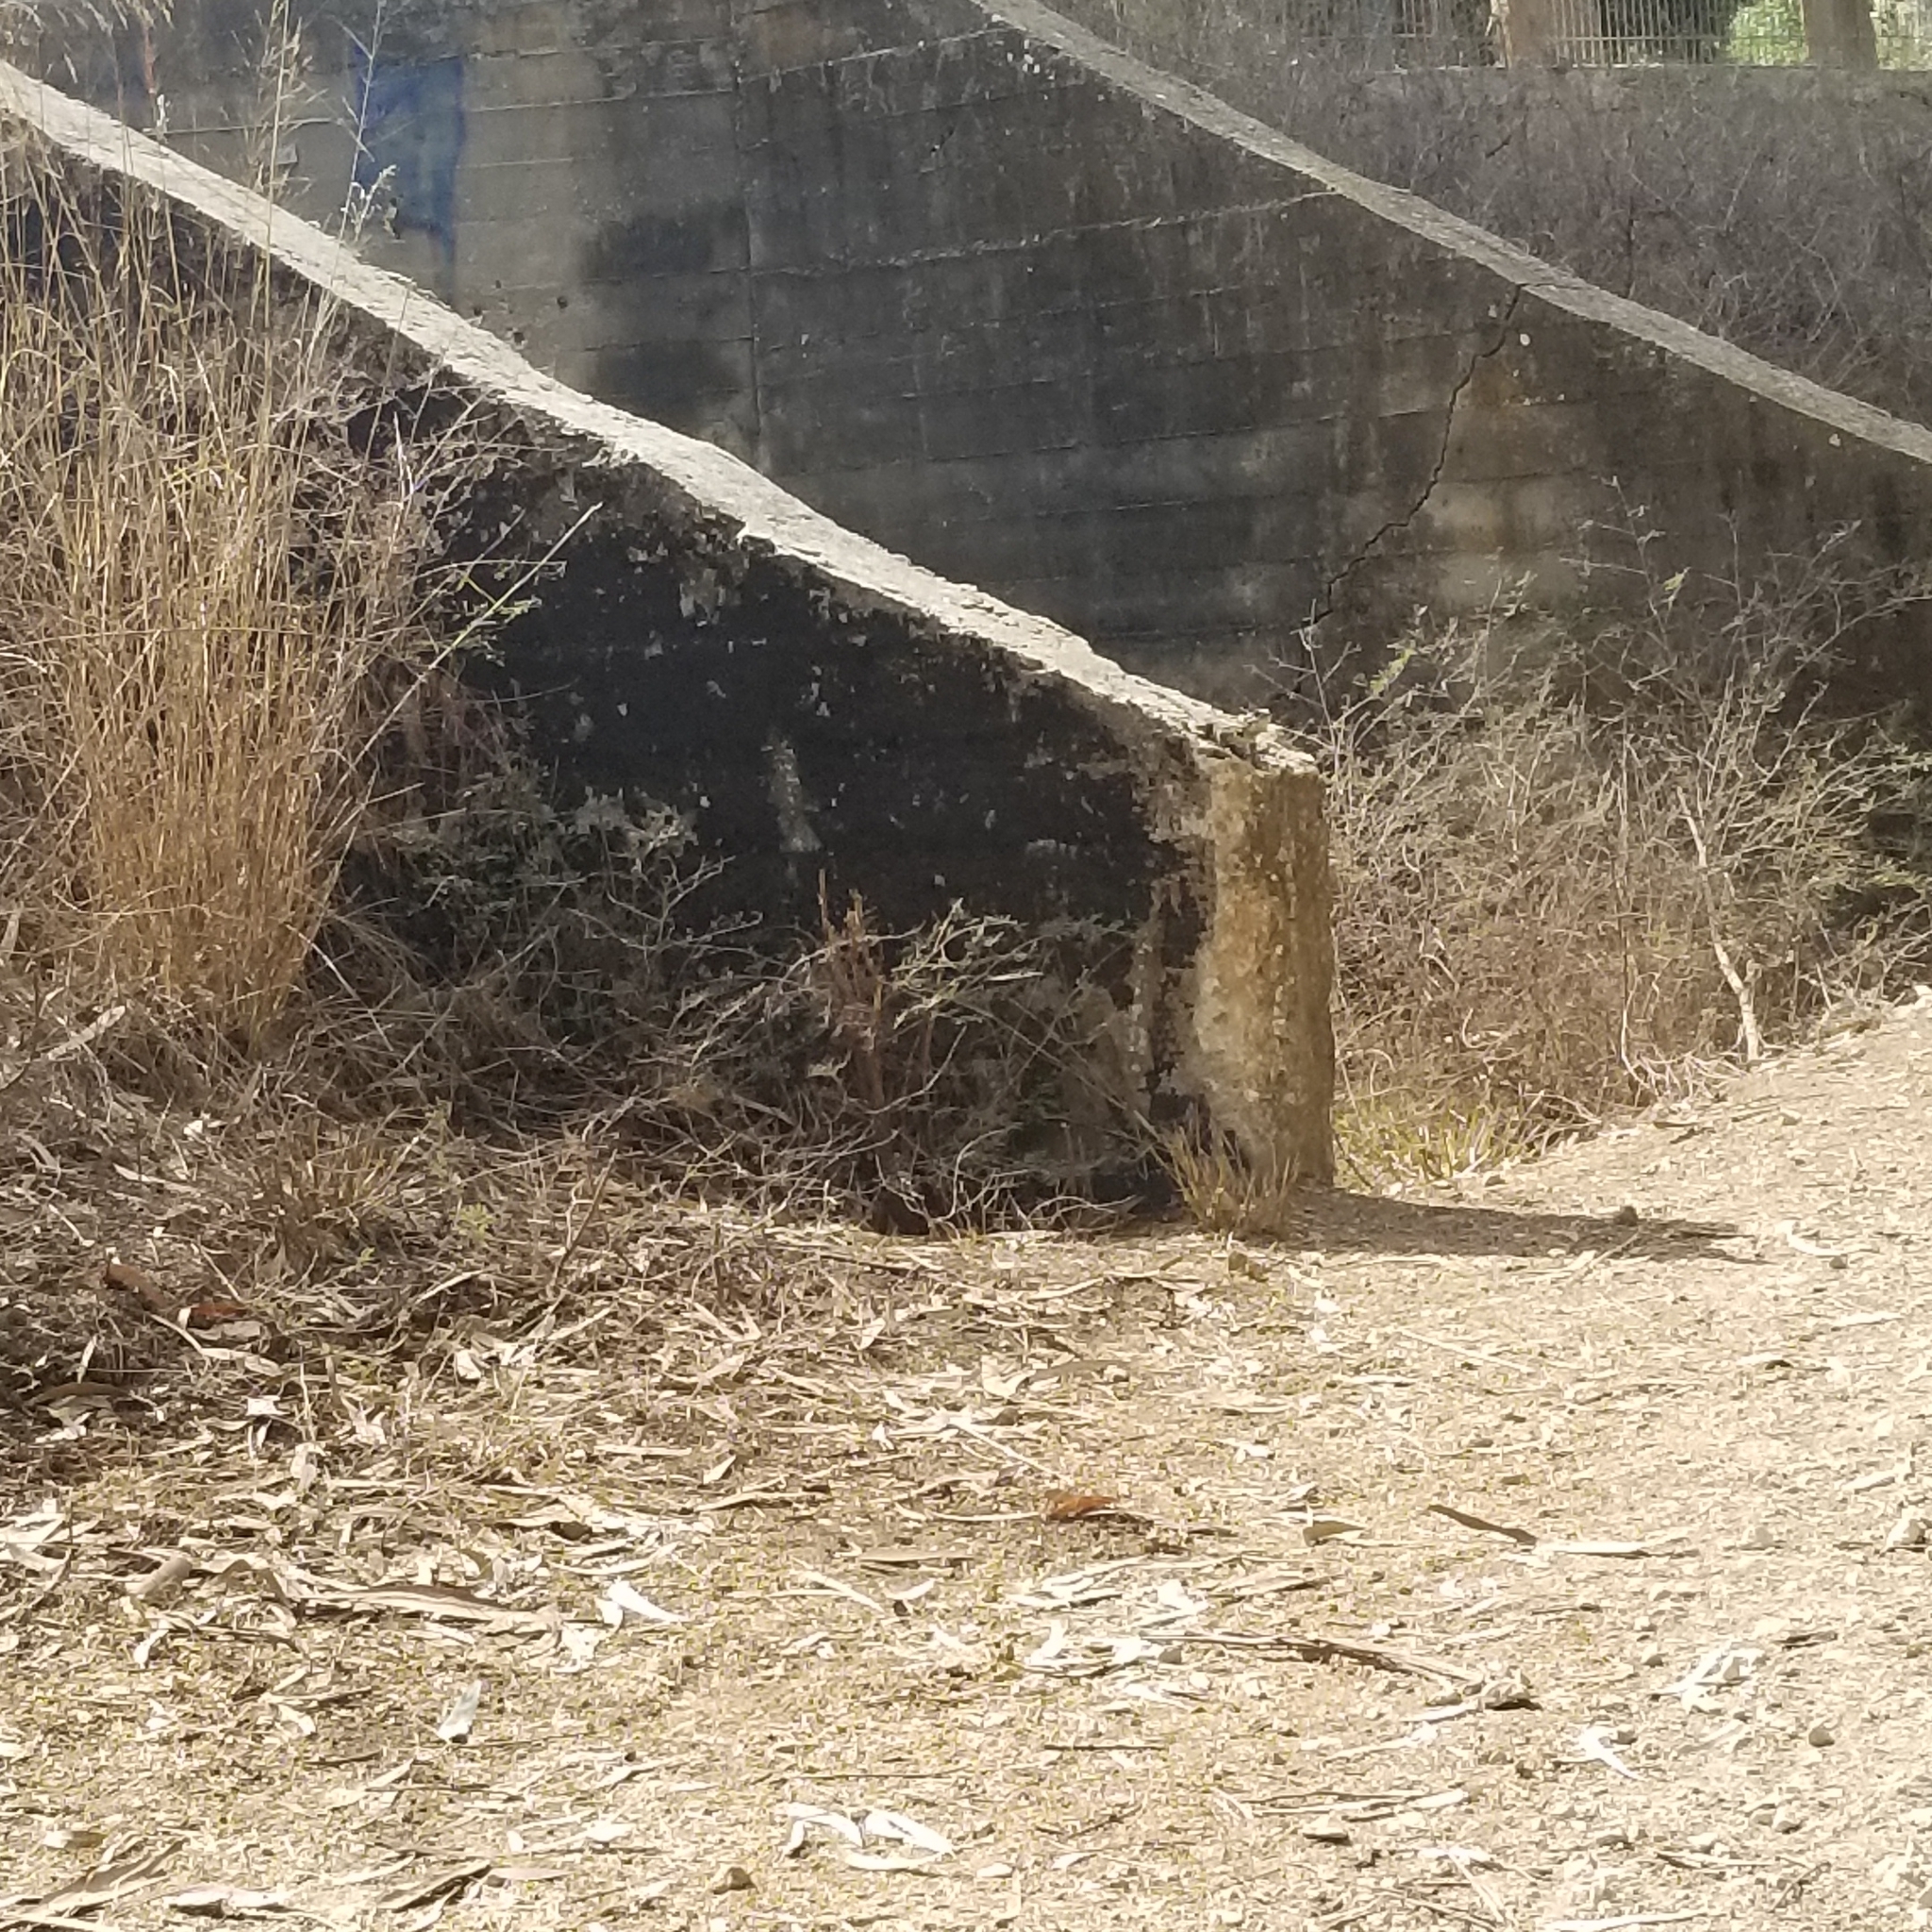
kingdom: Animalia
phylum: Chordata
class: Squamata
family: Agamidae
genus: Laudakia
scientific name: Laudakia vulgaris
